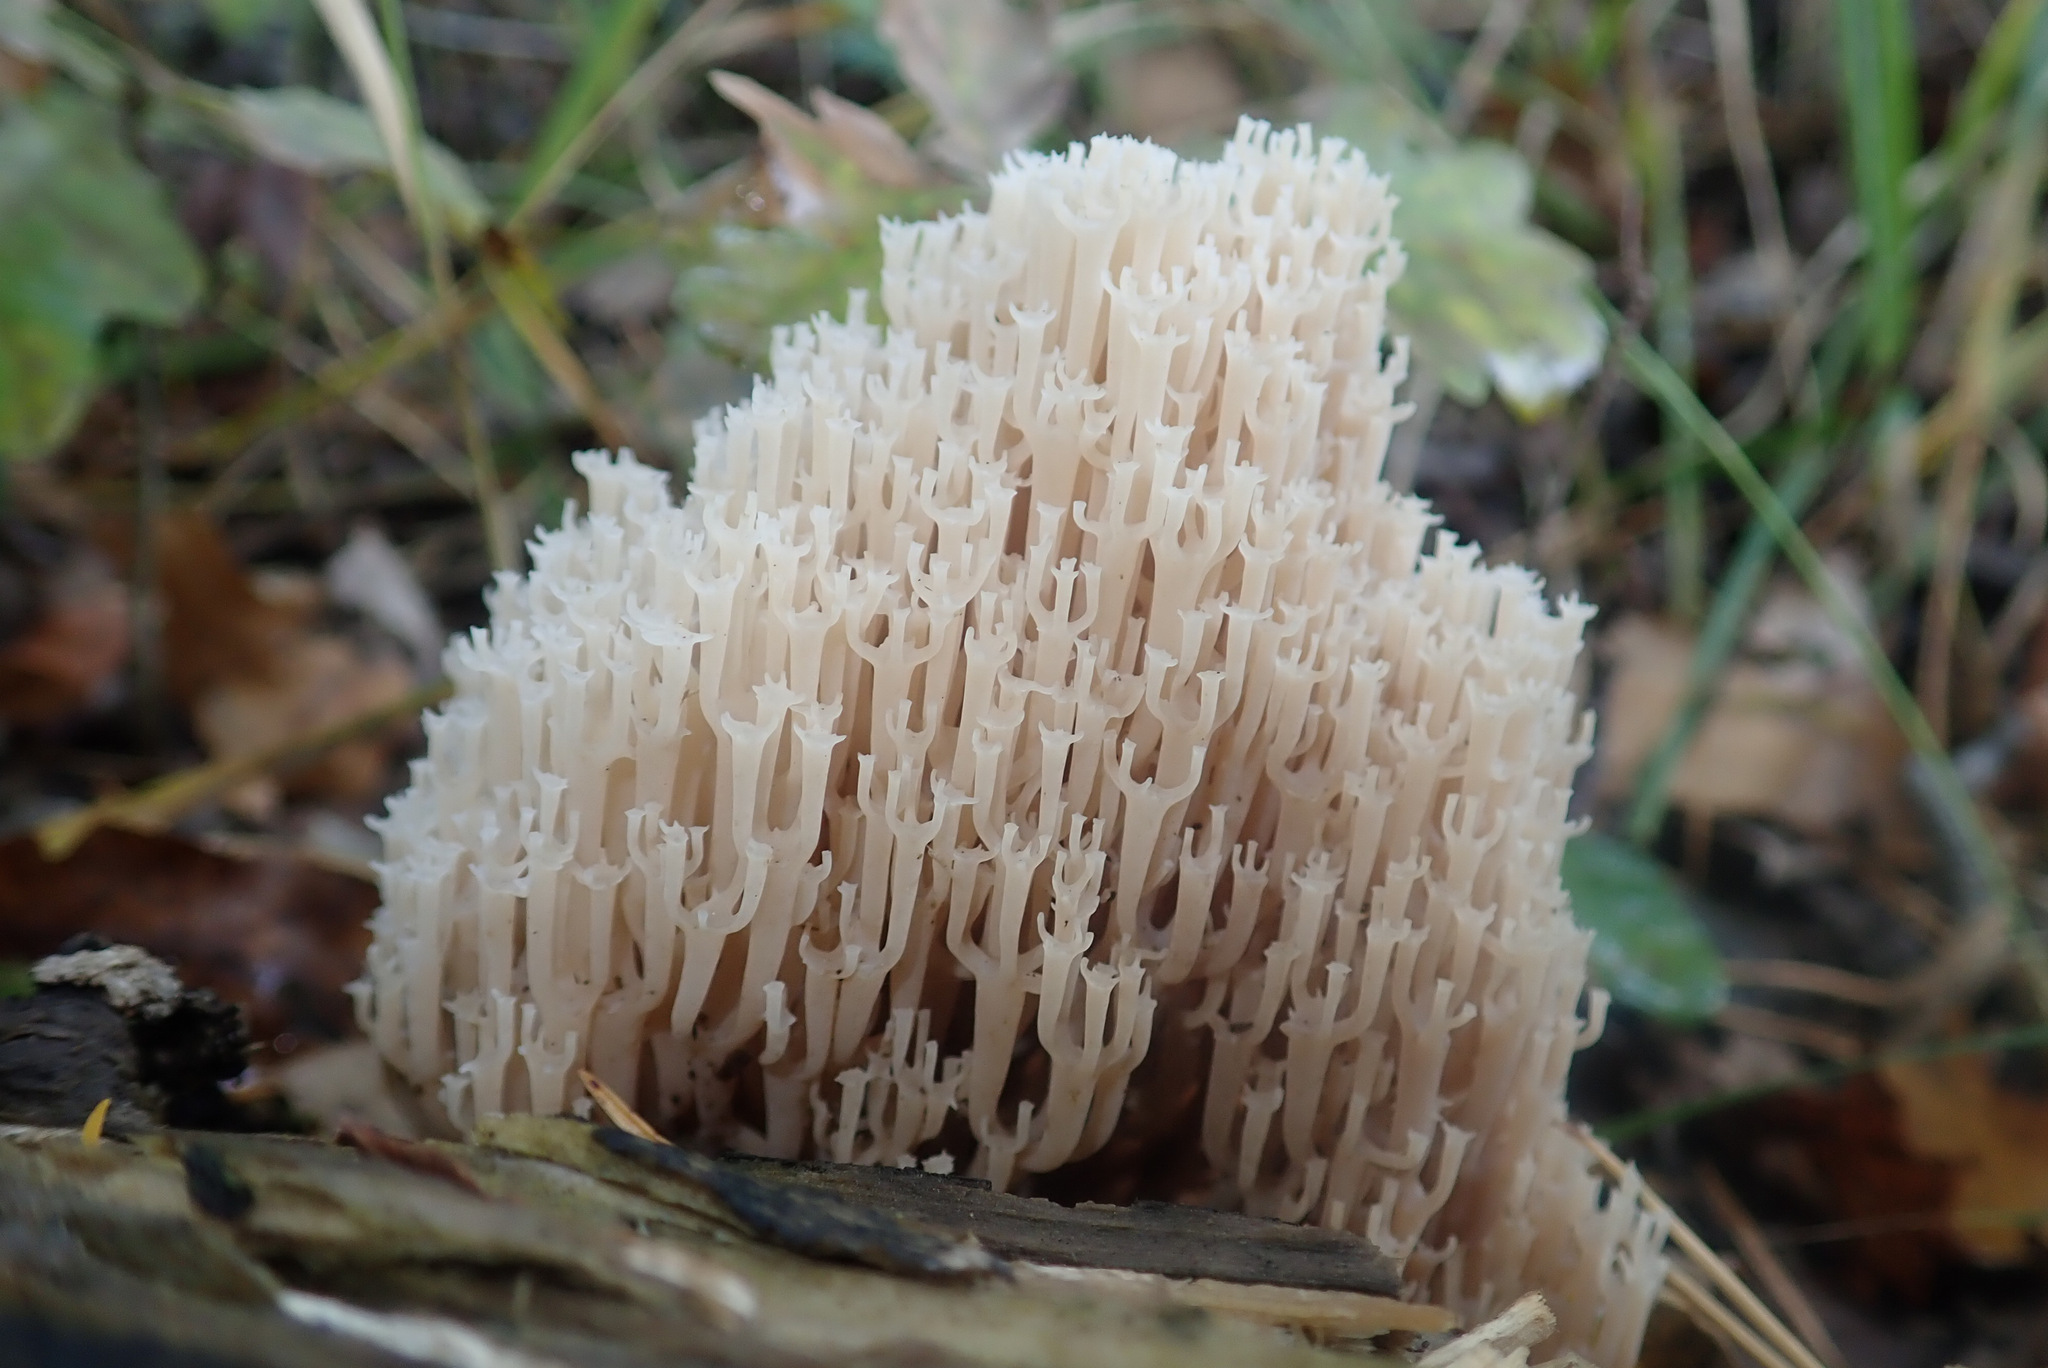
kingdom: Fungi
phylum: Basidiomycota
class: Agaricomycetes
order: Russulales
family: Auriscalpiaceae
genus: Artomyces
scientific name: Artomyces pyxidatus
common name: Crown-tipped coral fungus
